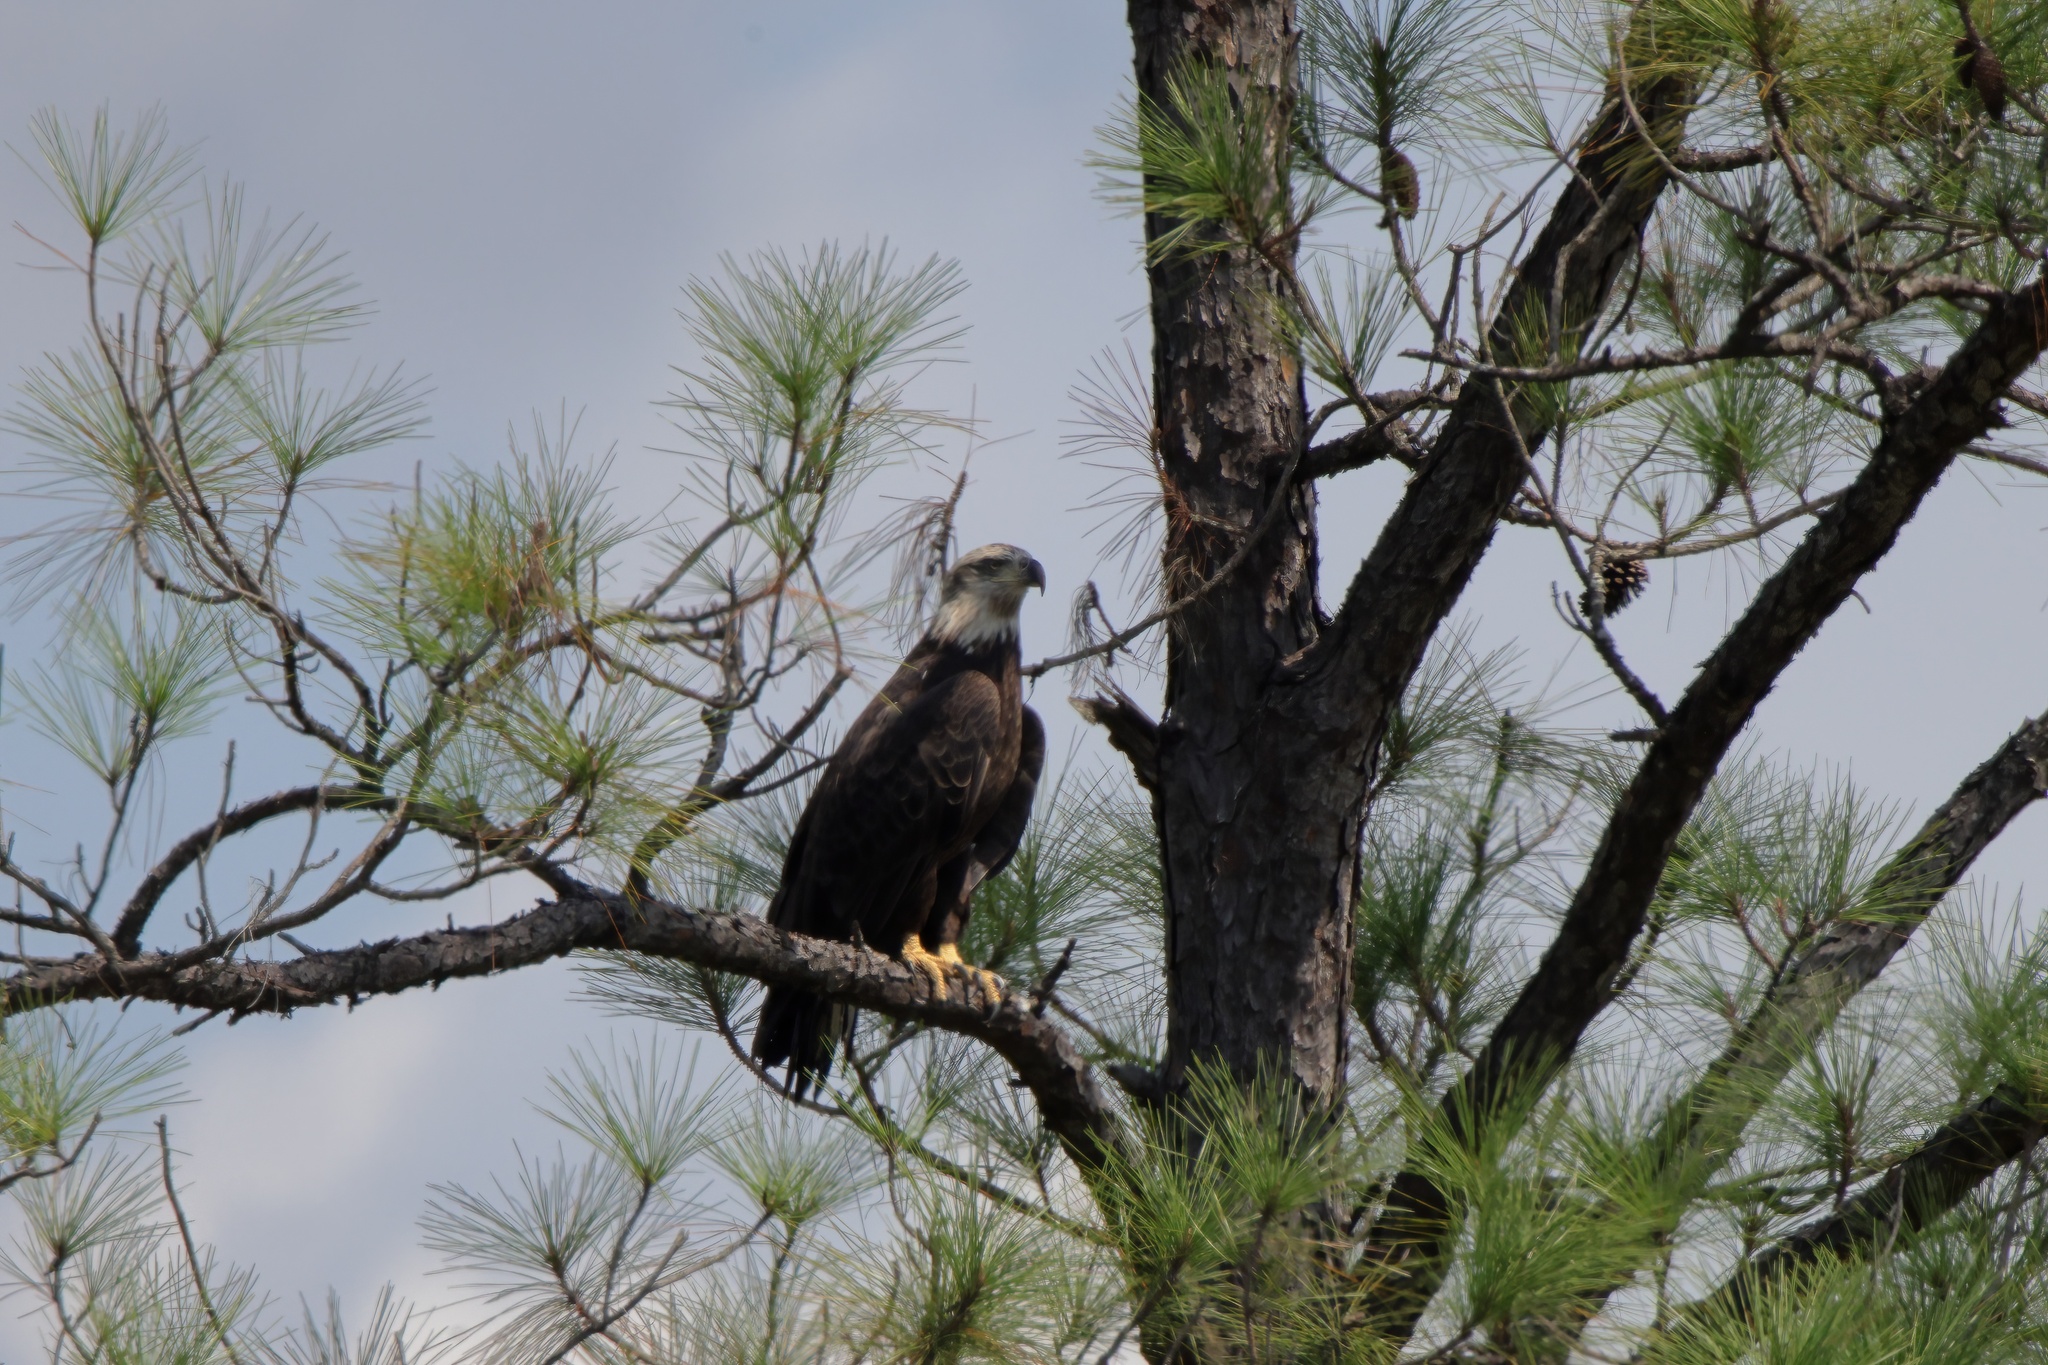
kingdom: Animalia
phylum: Chordata
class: Aves
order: Accipitriformes
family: Accipitridae
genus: Haliaeetus
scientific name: Haliaeetus leucocephalus
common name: Bald eagle
